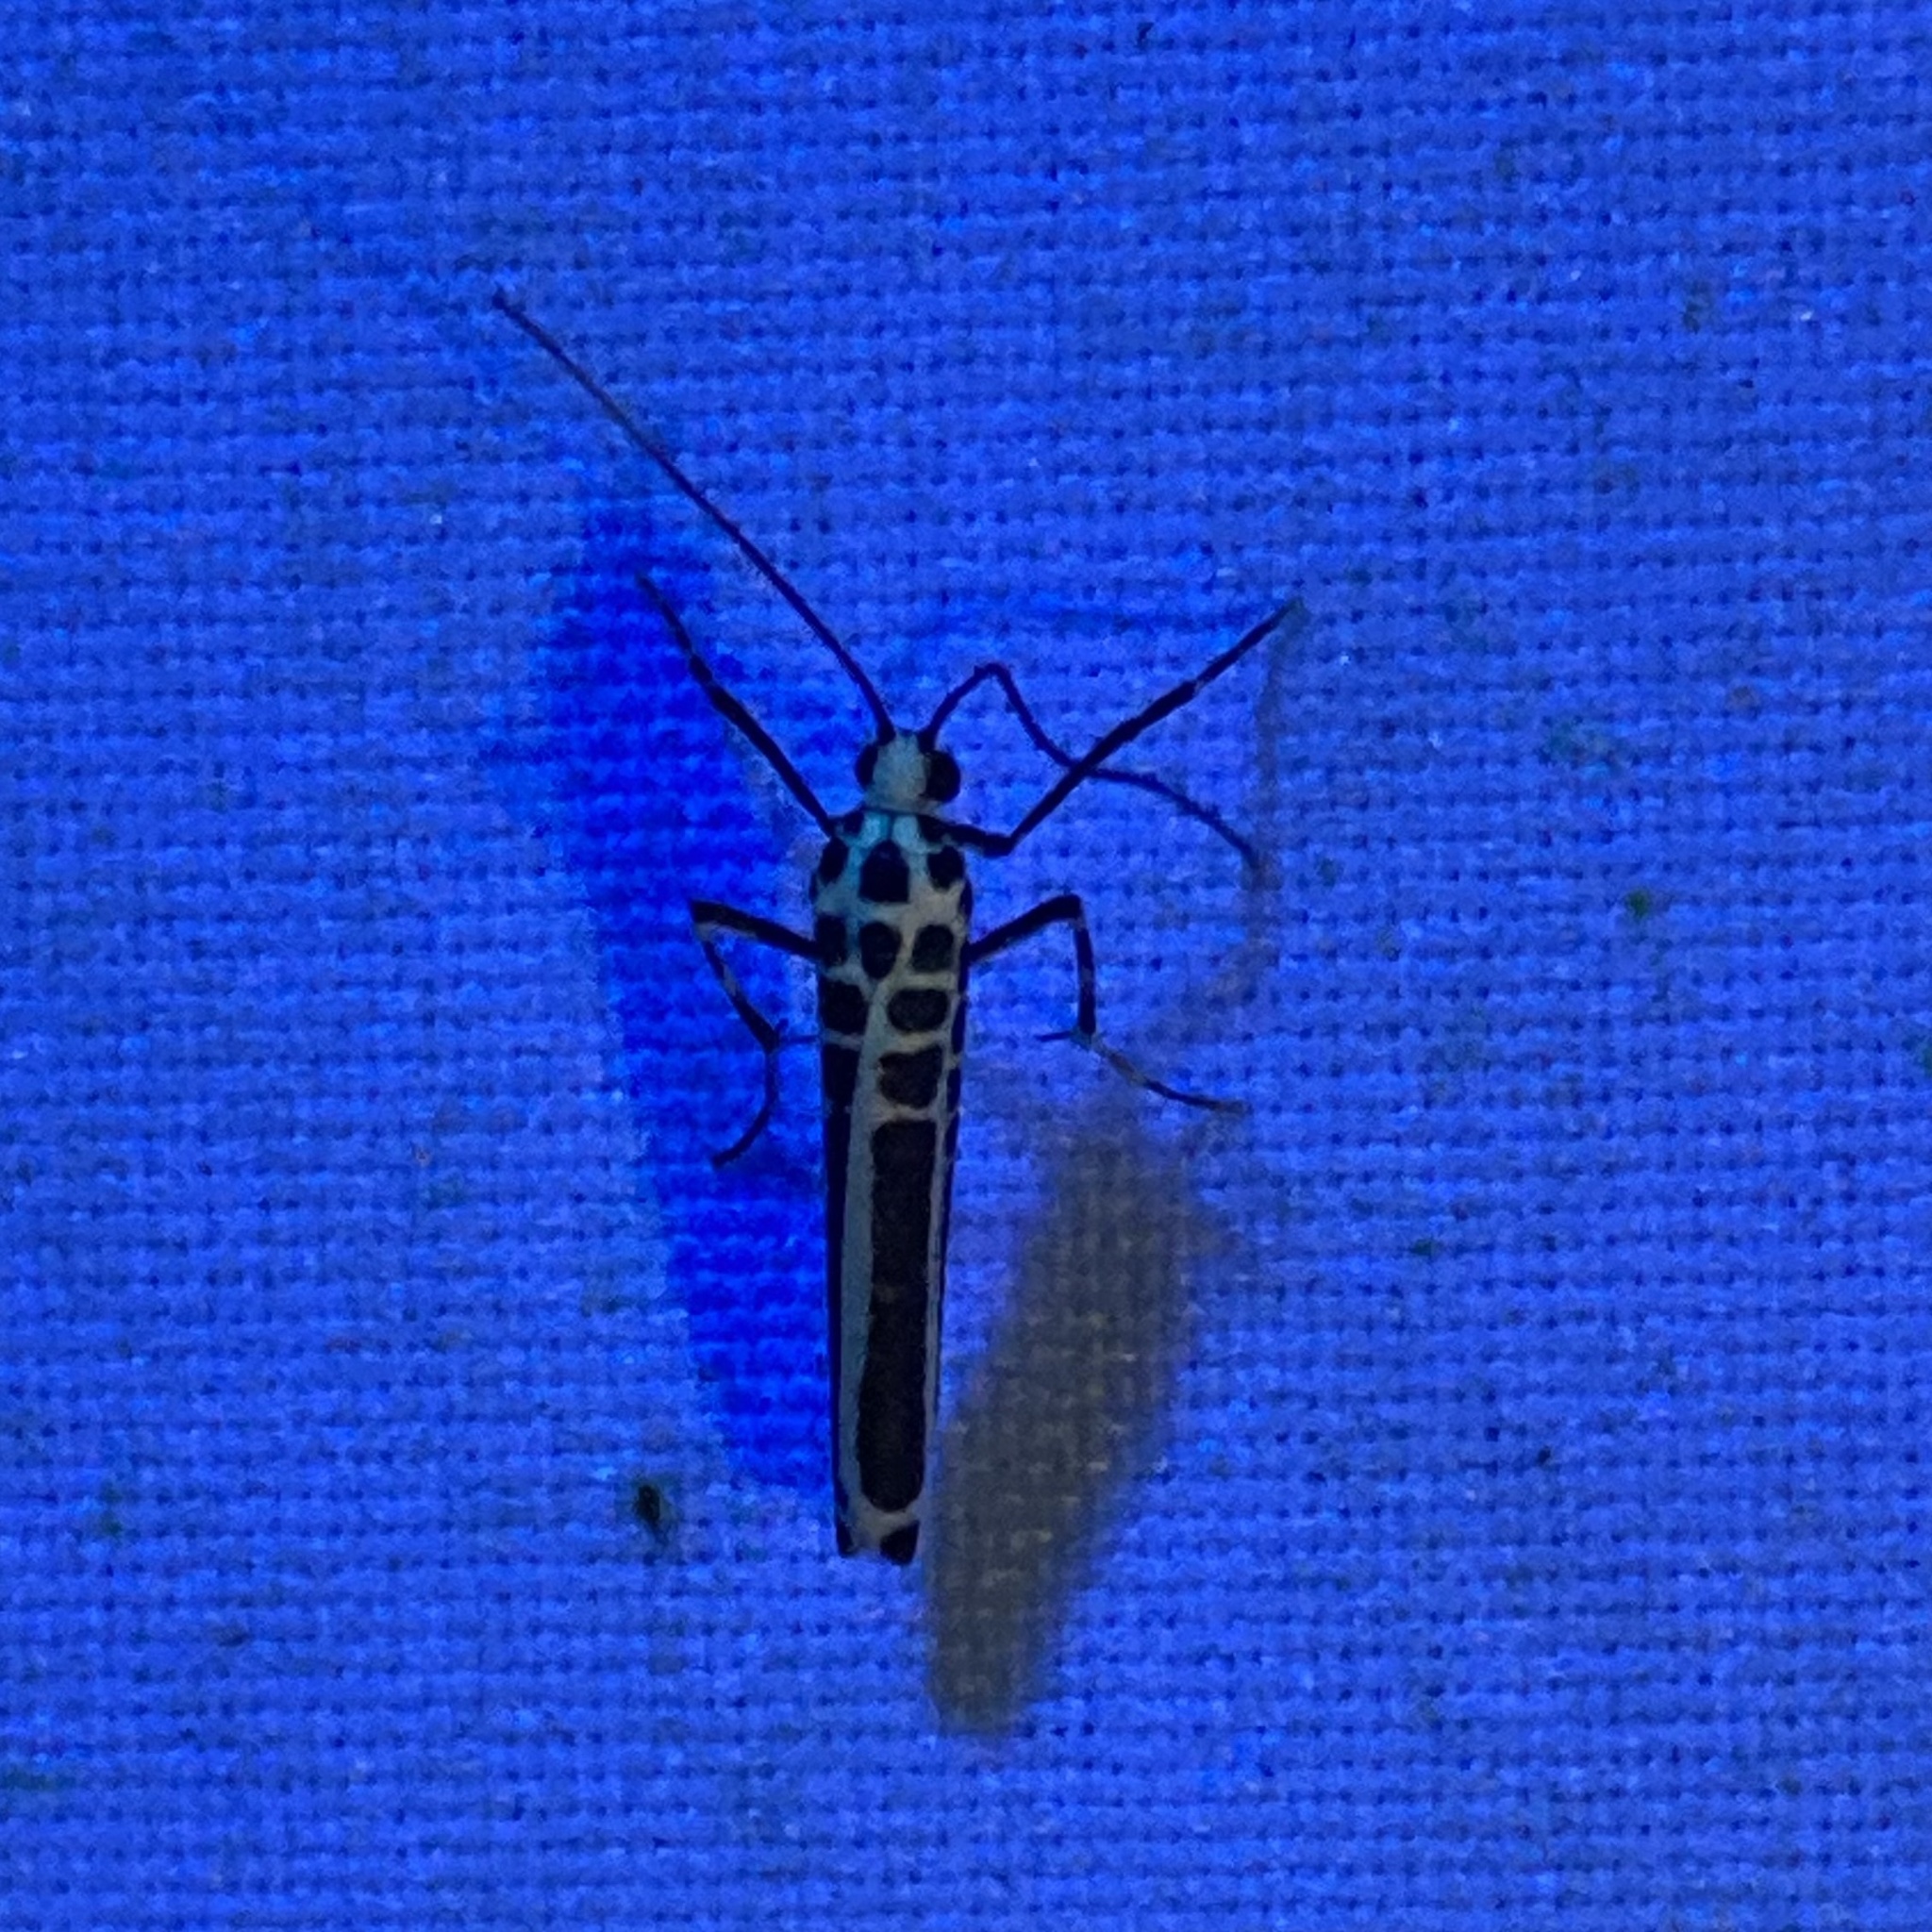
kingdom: Animalia
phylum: Arthropoda
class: Insecta
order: Lepidoptera
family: Attevidae
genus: Atteva
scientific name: Atteva zebra
